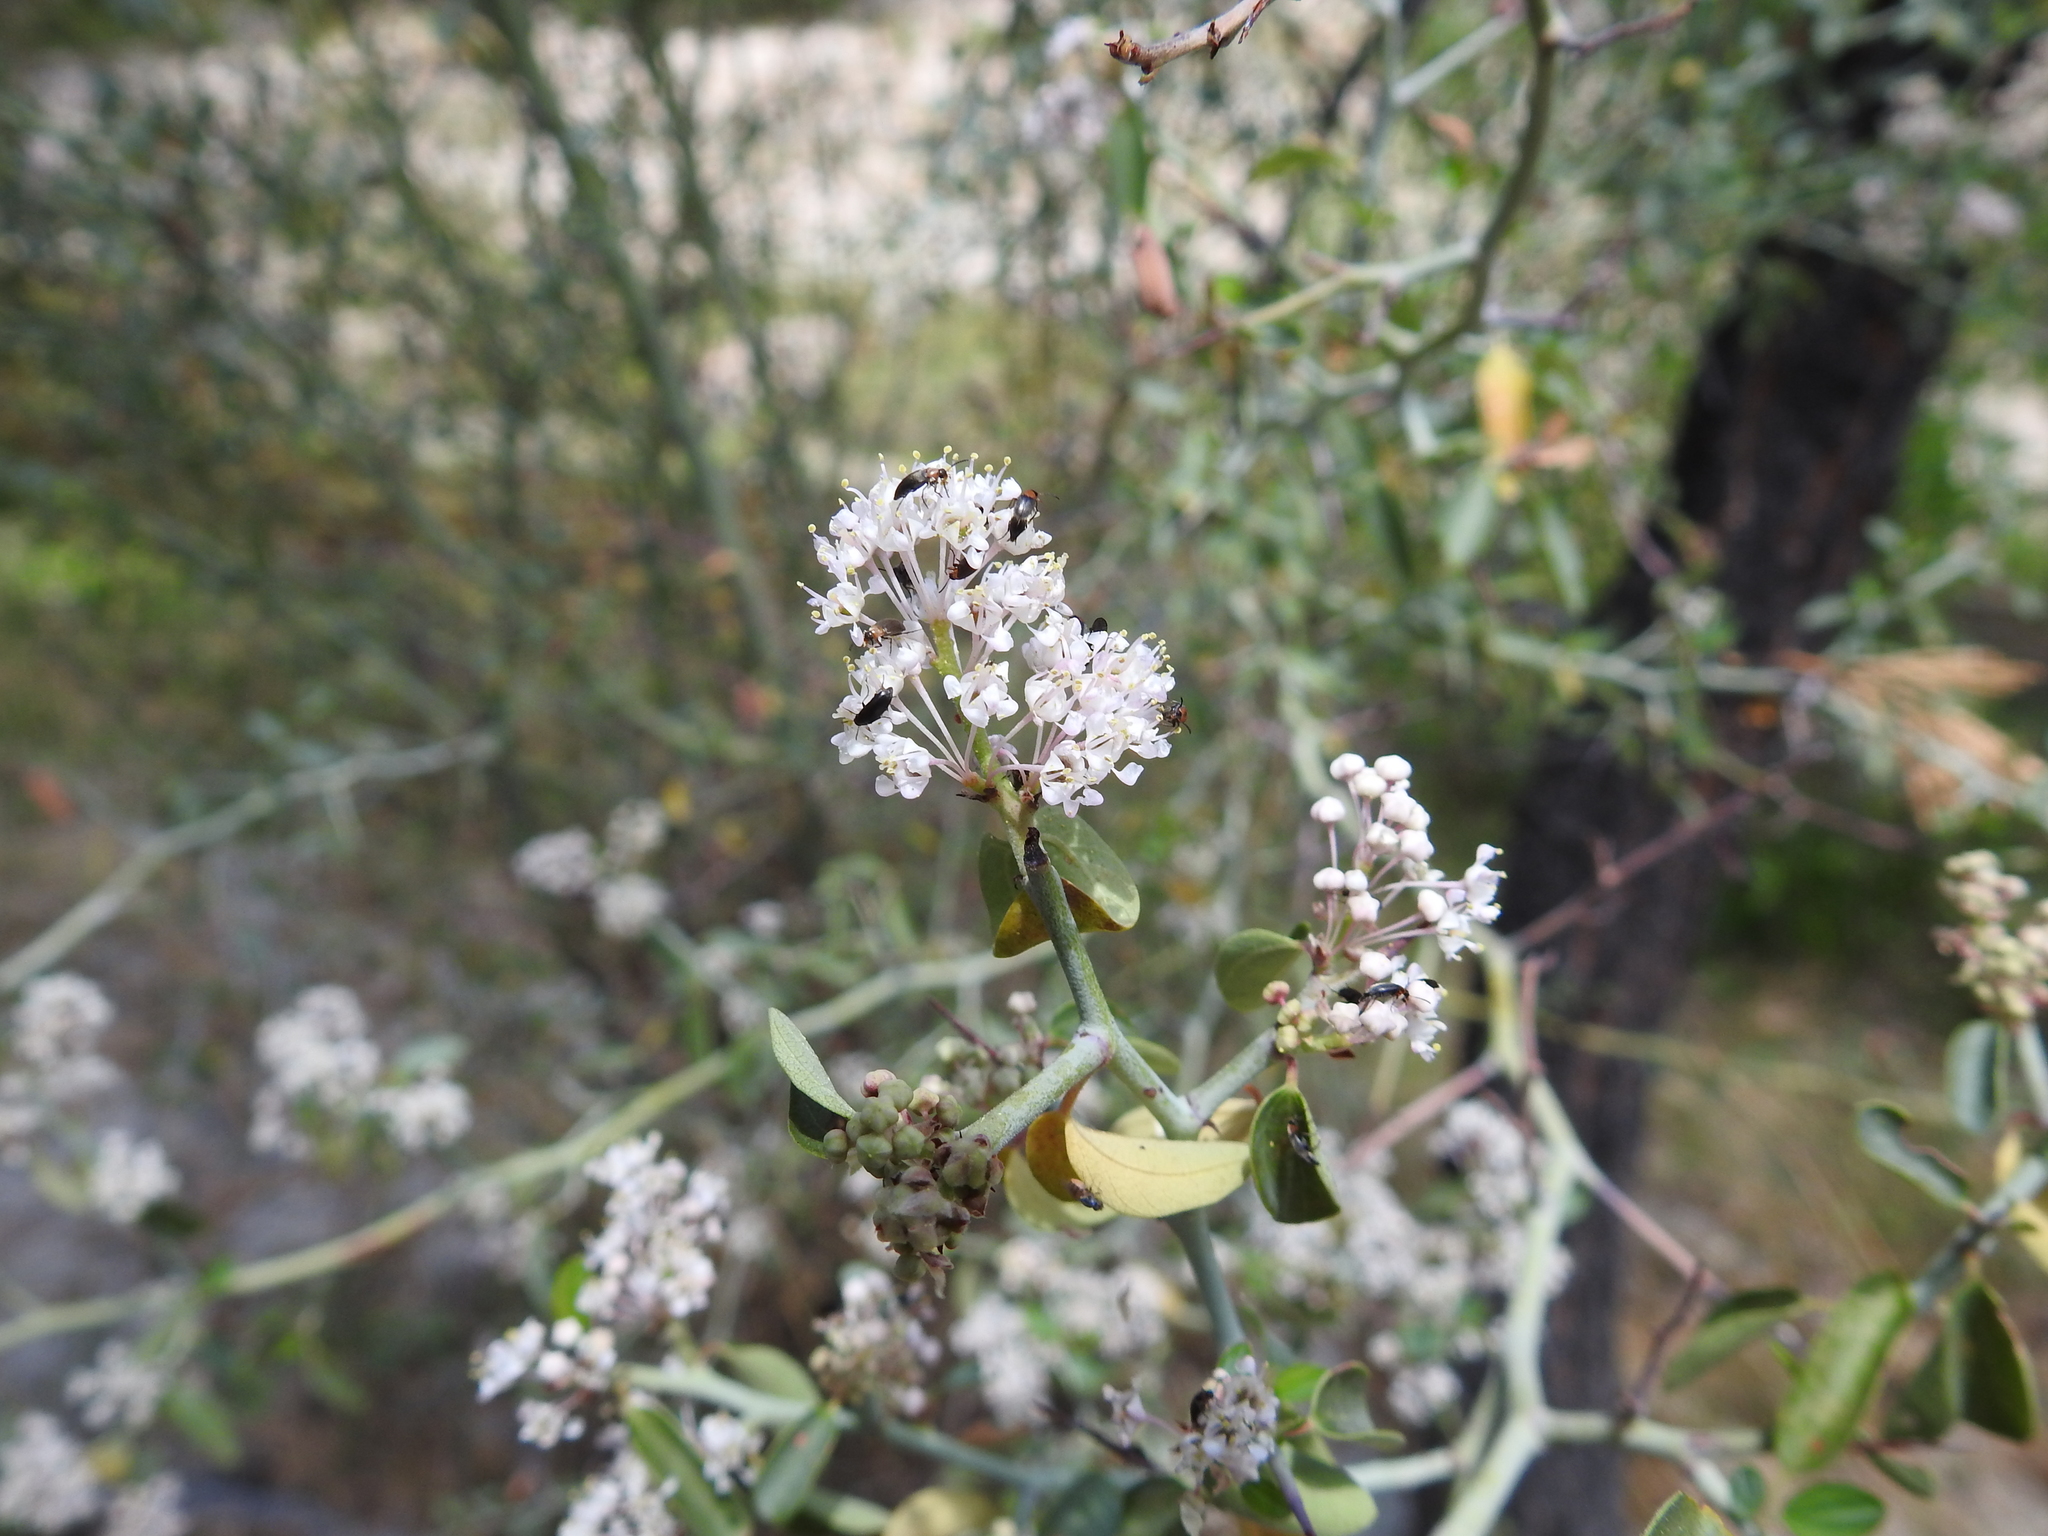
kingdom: Plantae
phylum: Tracheophyta
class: Magnoliopsida
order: Rosales
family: Rhamnaceae
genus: Ceanothus
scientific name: Ceanothus cordulatus
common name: Mountain whitethorn
